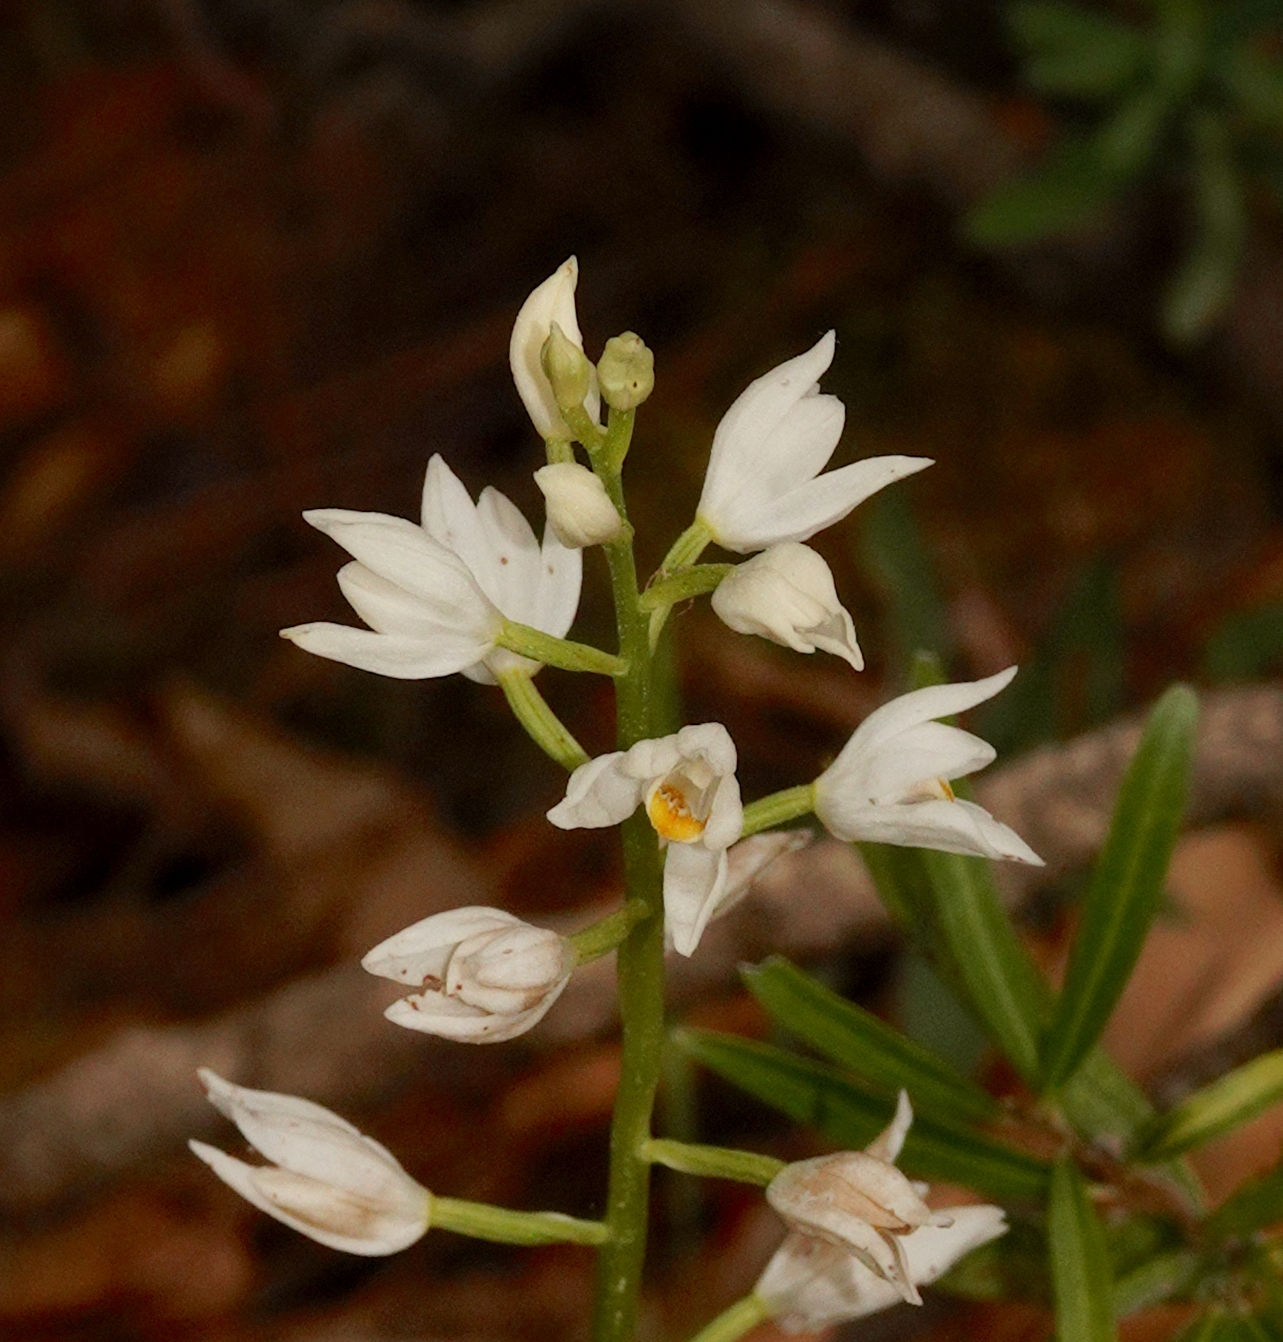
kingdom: Plantae
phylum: Tracheophyta
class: Liliopsida
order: Asparagales
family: Orchidaceae
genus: Cephalanthera
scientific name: Cephalanthera longifolia
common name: Narrow-leaved helleborine
